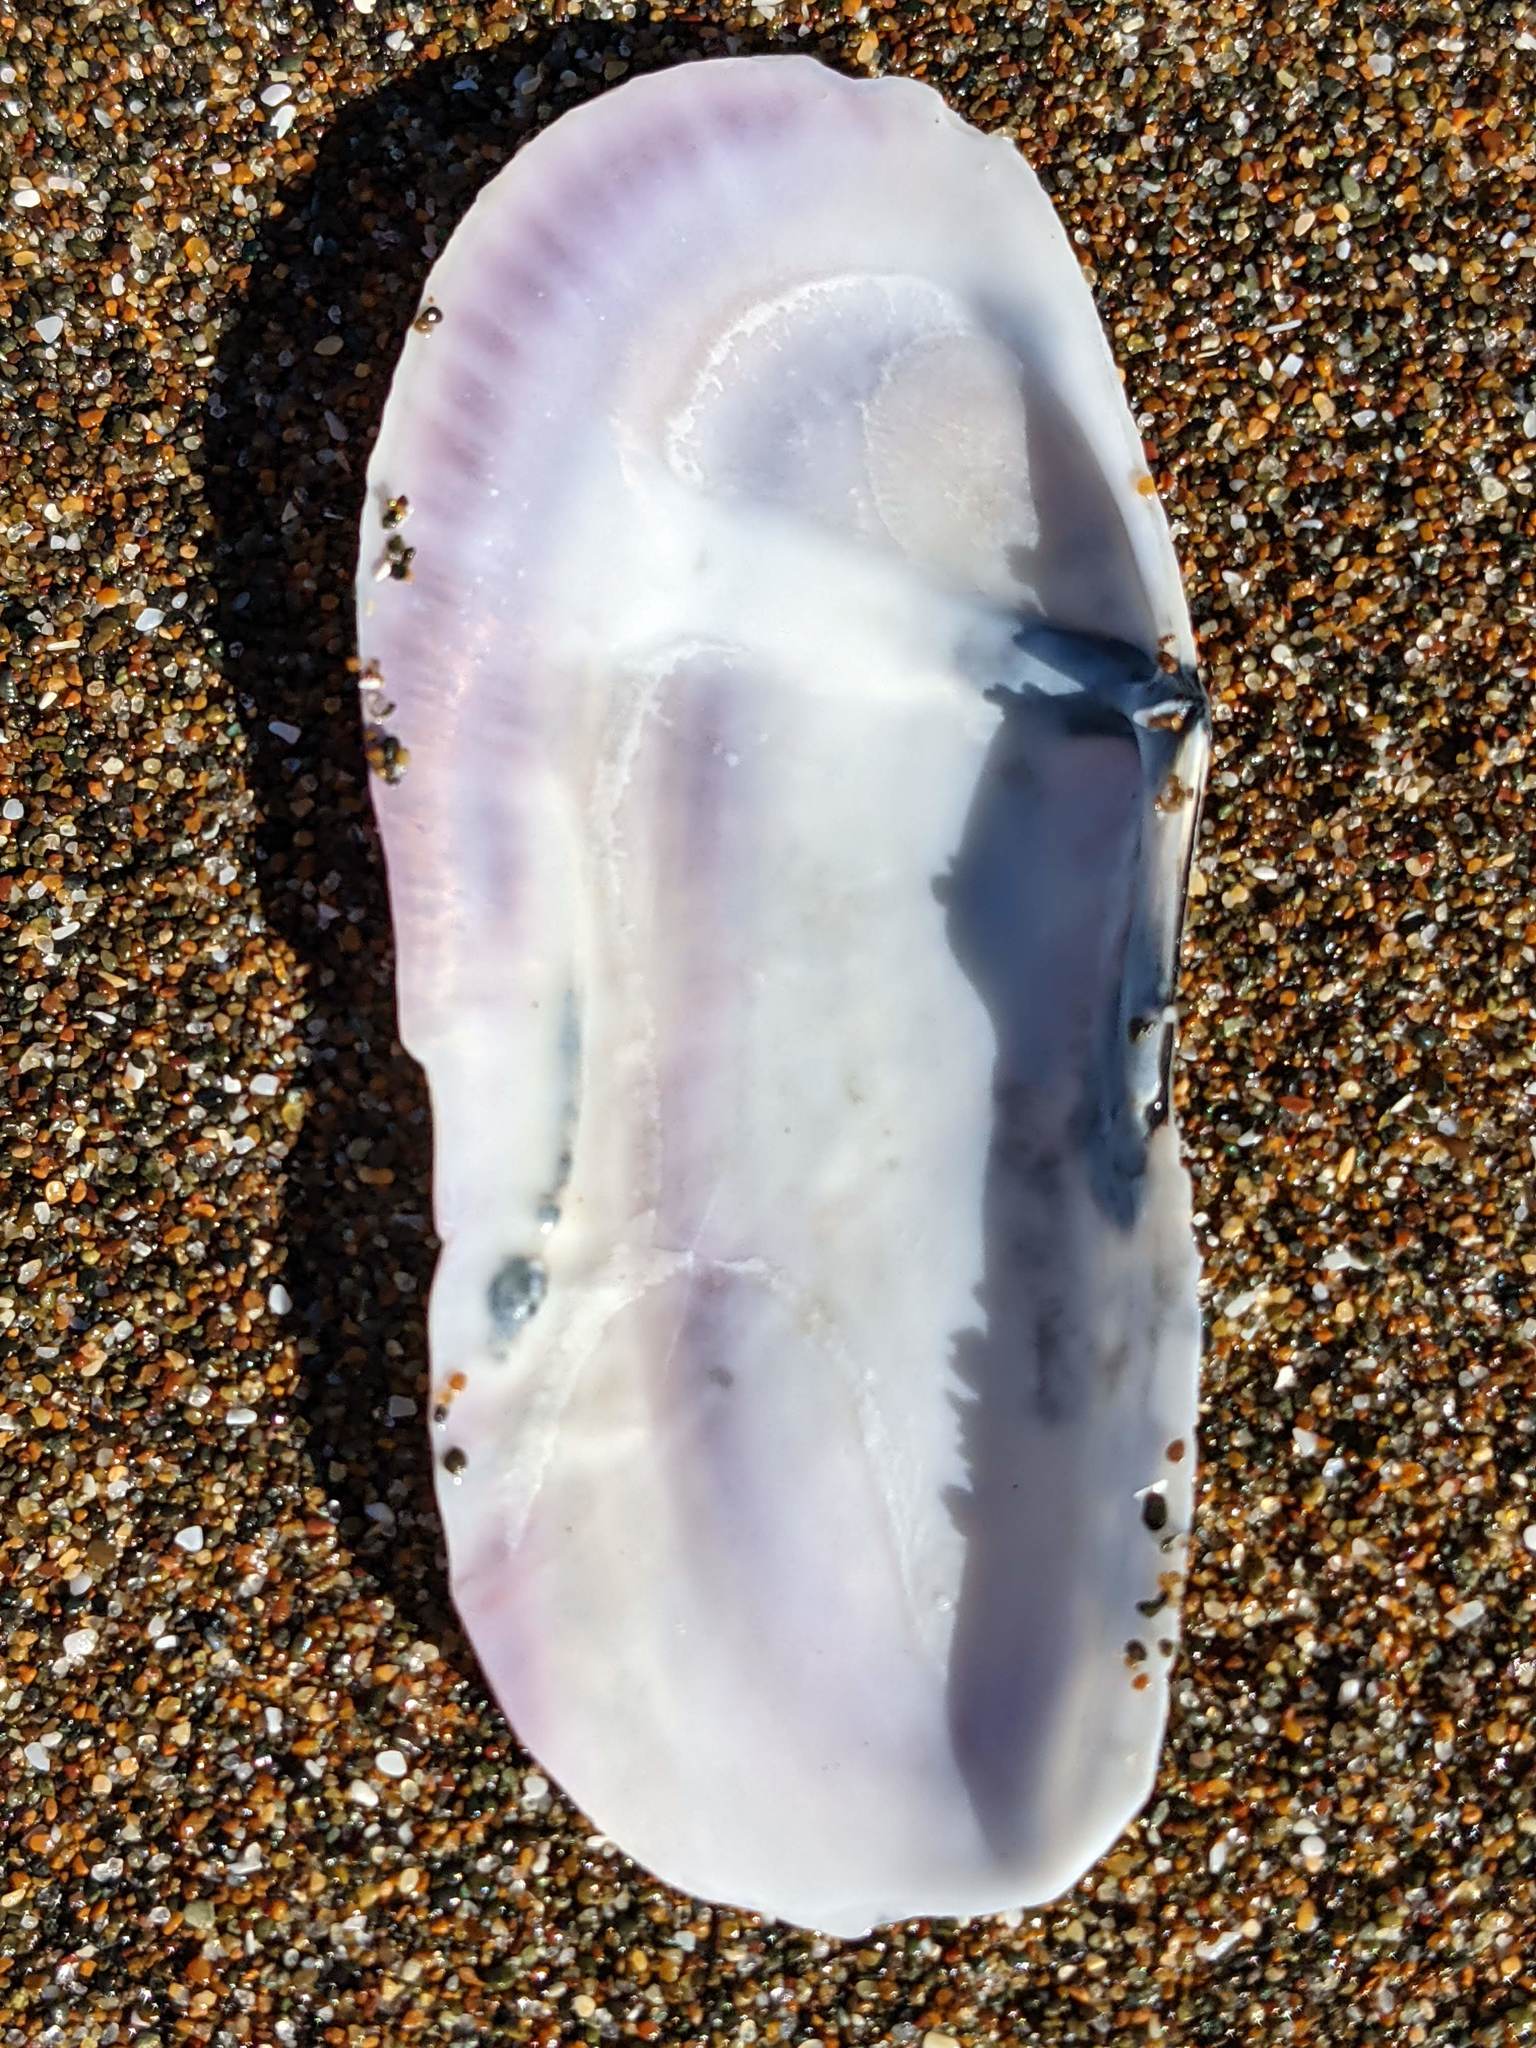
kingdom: Animalia
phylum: Mollusca
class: Bivalvia
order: Adapedonta
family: Pharidae
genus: Siliqua
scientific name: Siliqua patula
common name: Pacific razor clam
